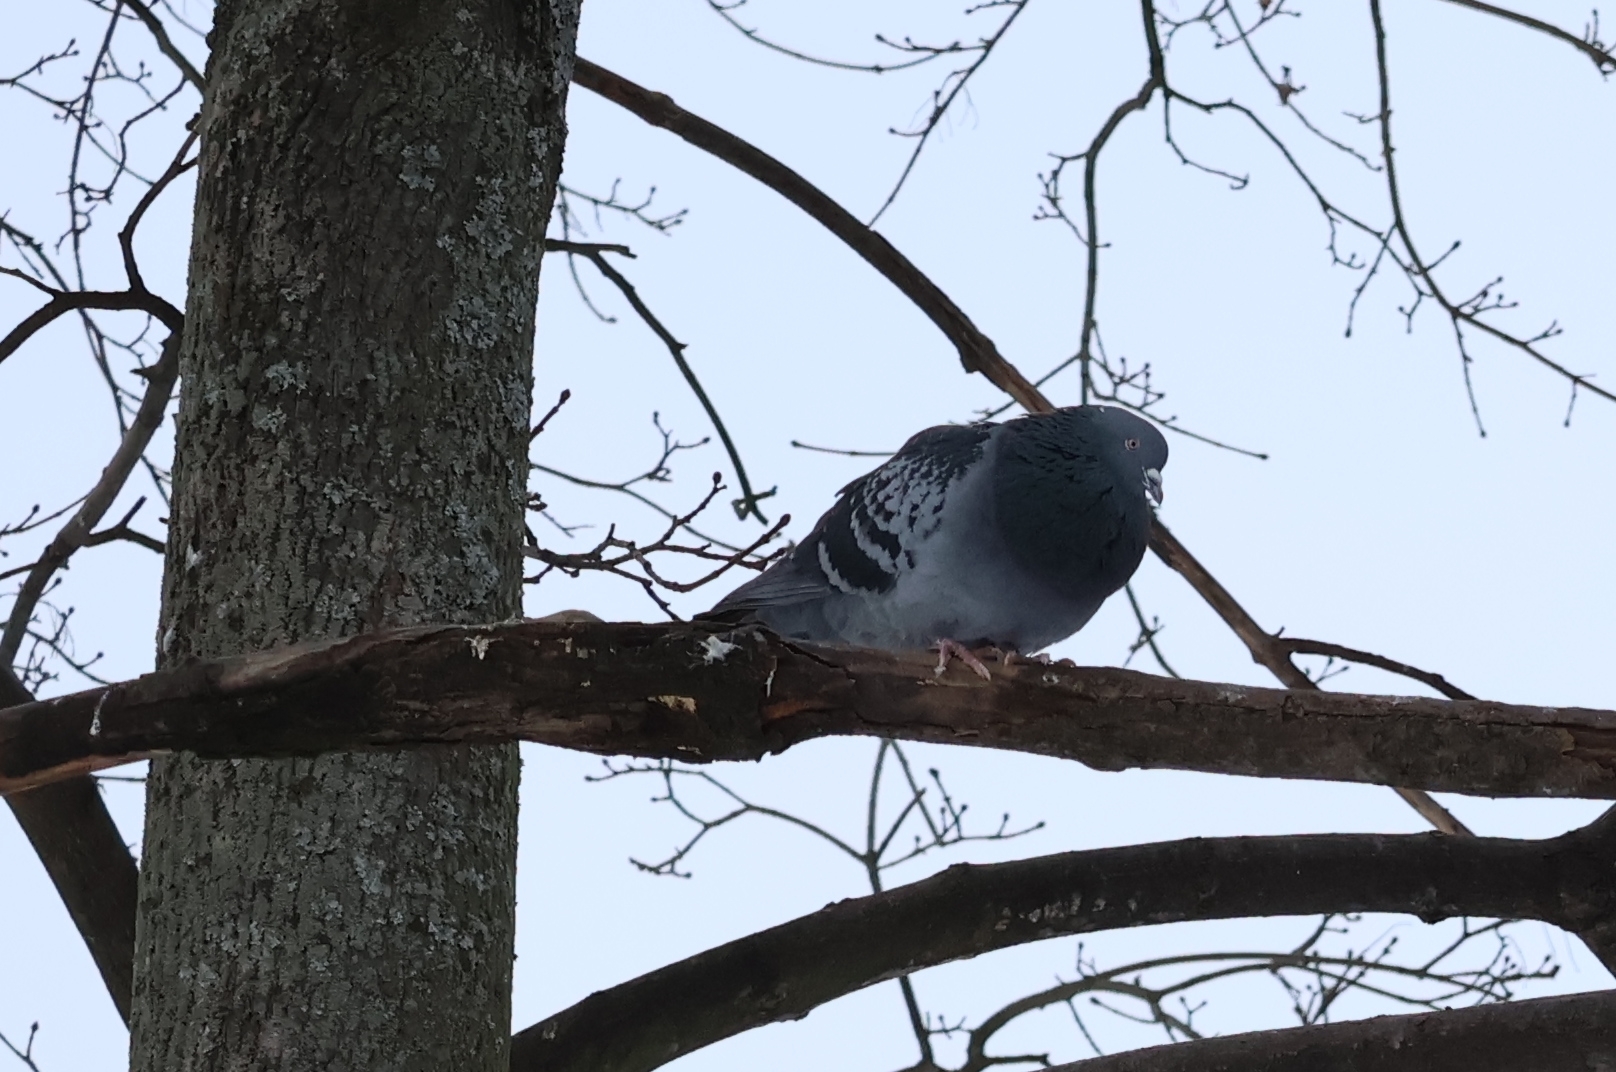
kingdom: Animalia
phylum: Chordata
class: Aves
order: Columbiformes
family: Columbidae
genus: Columba
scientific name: Columba livia
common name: Rock pigeon
